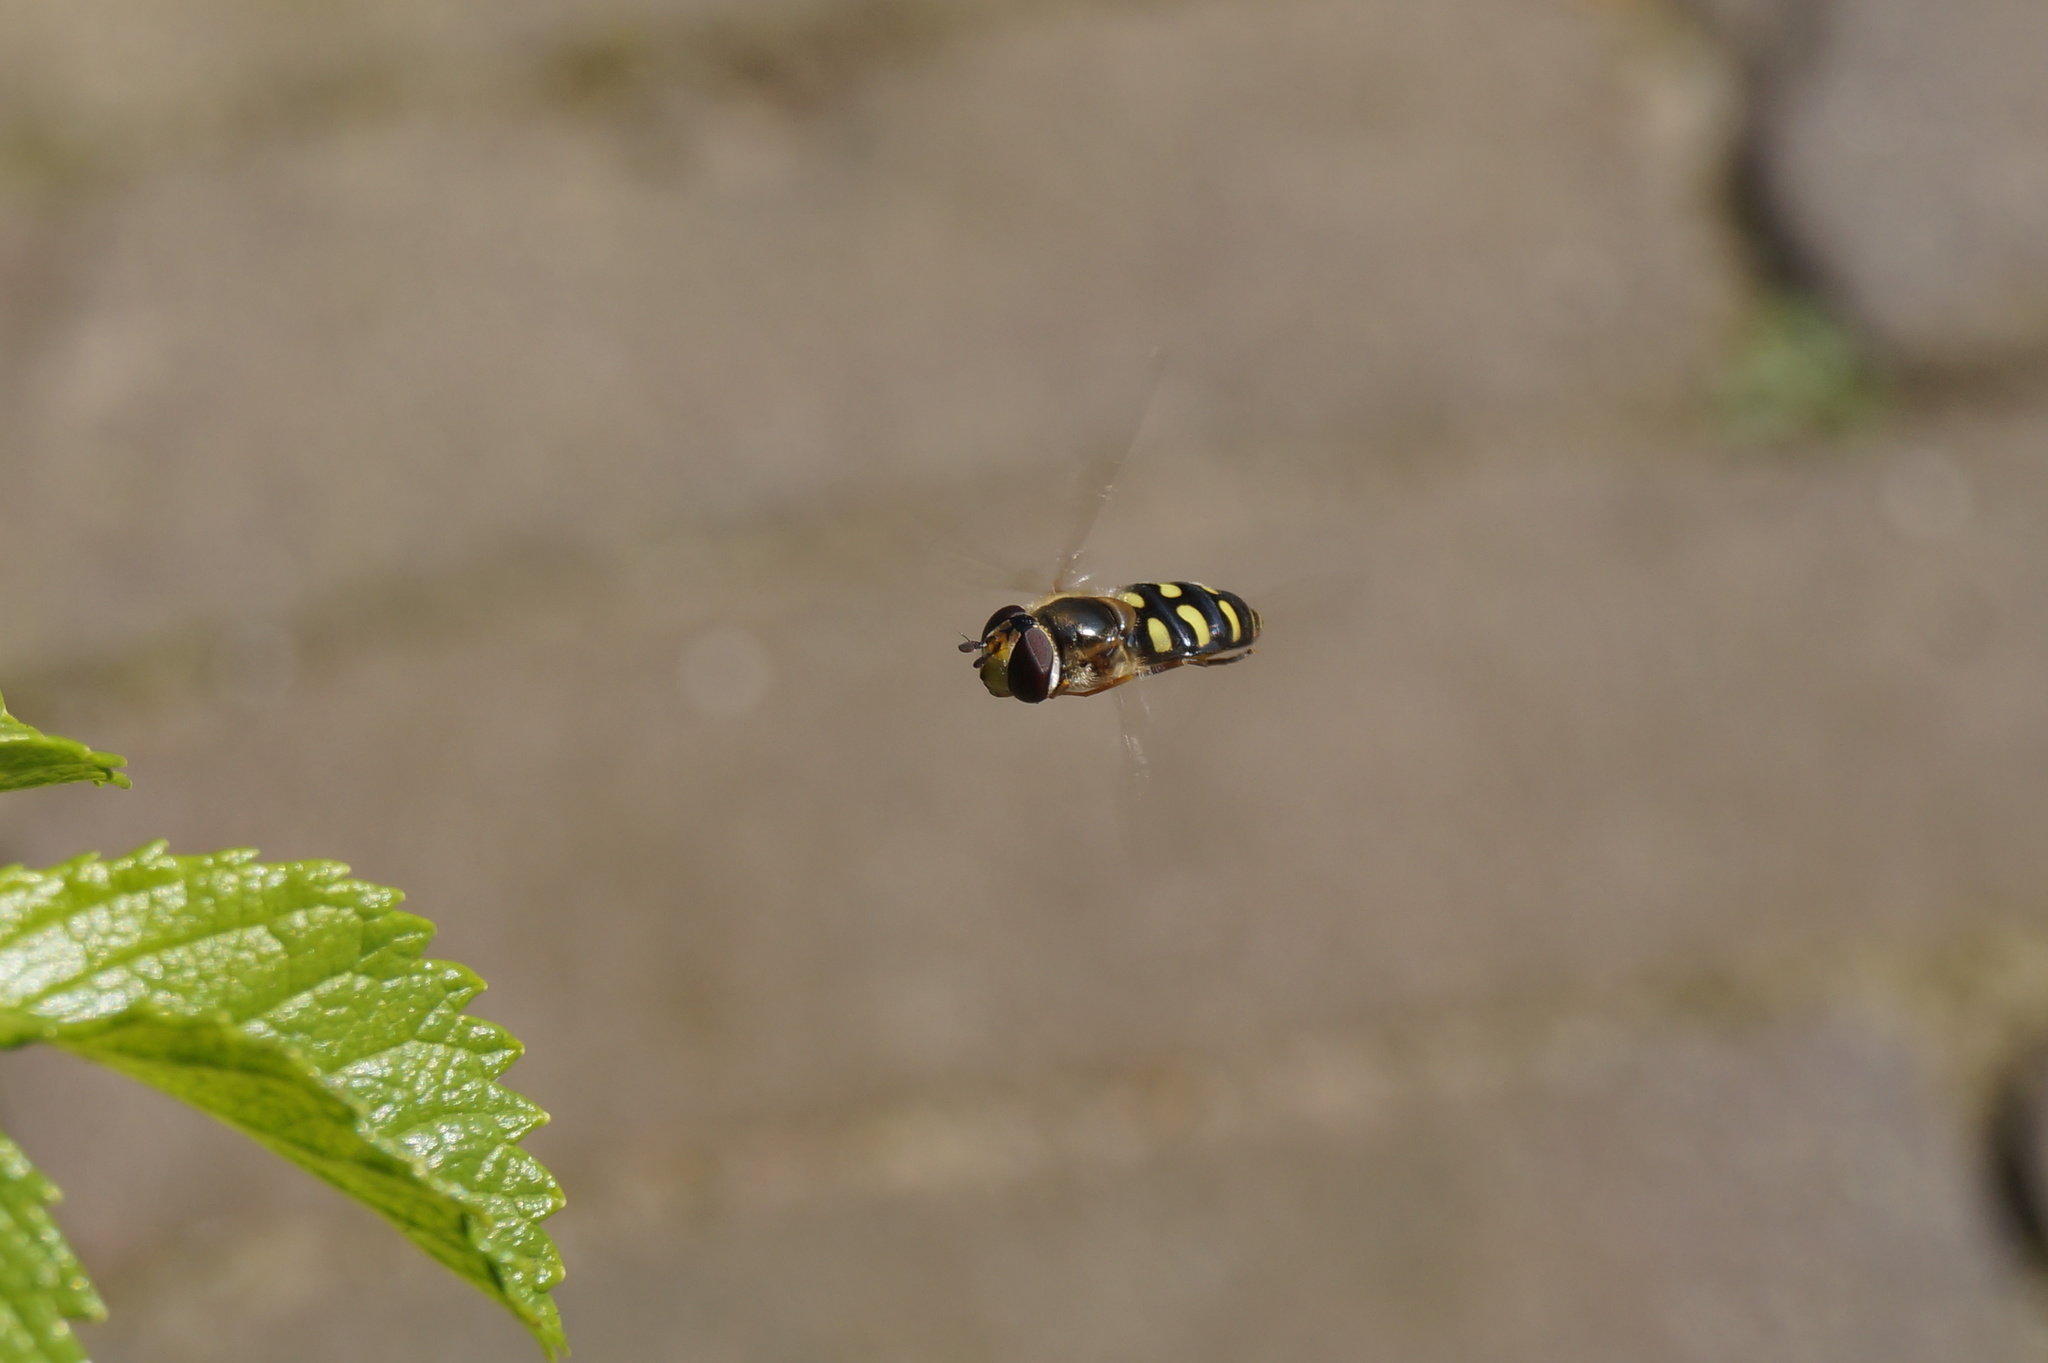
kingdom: Animalia
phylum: Arthropoda
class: Insecta
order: Diptera
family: Syrphidae
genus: Eupeodes
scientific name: Eupeodes luniger
